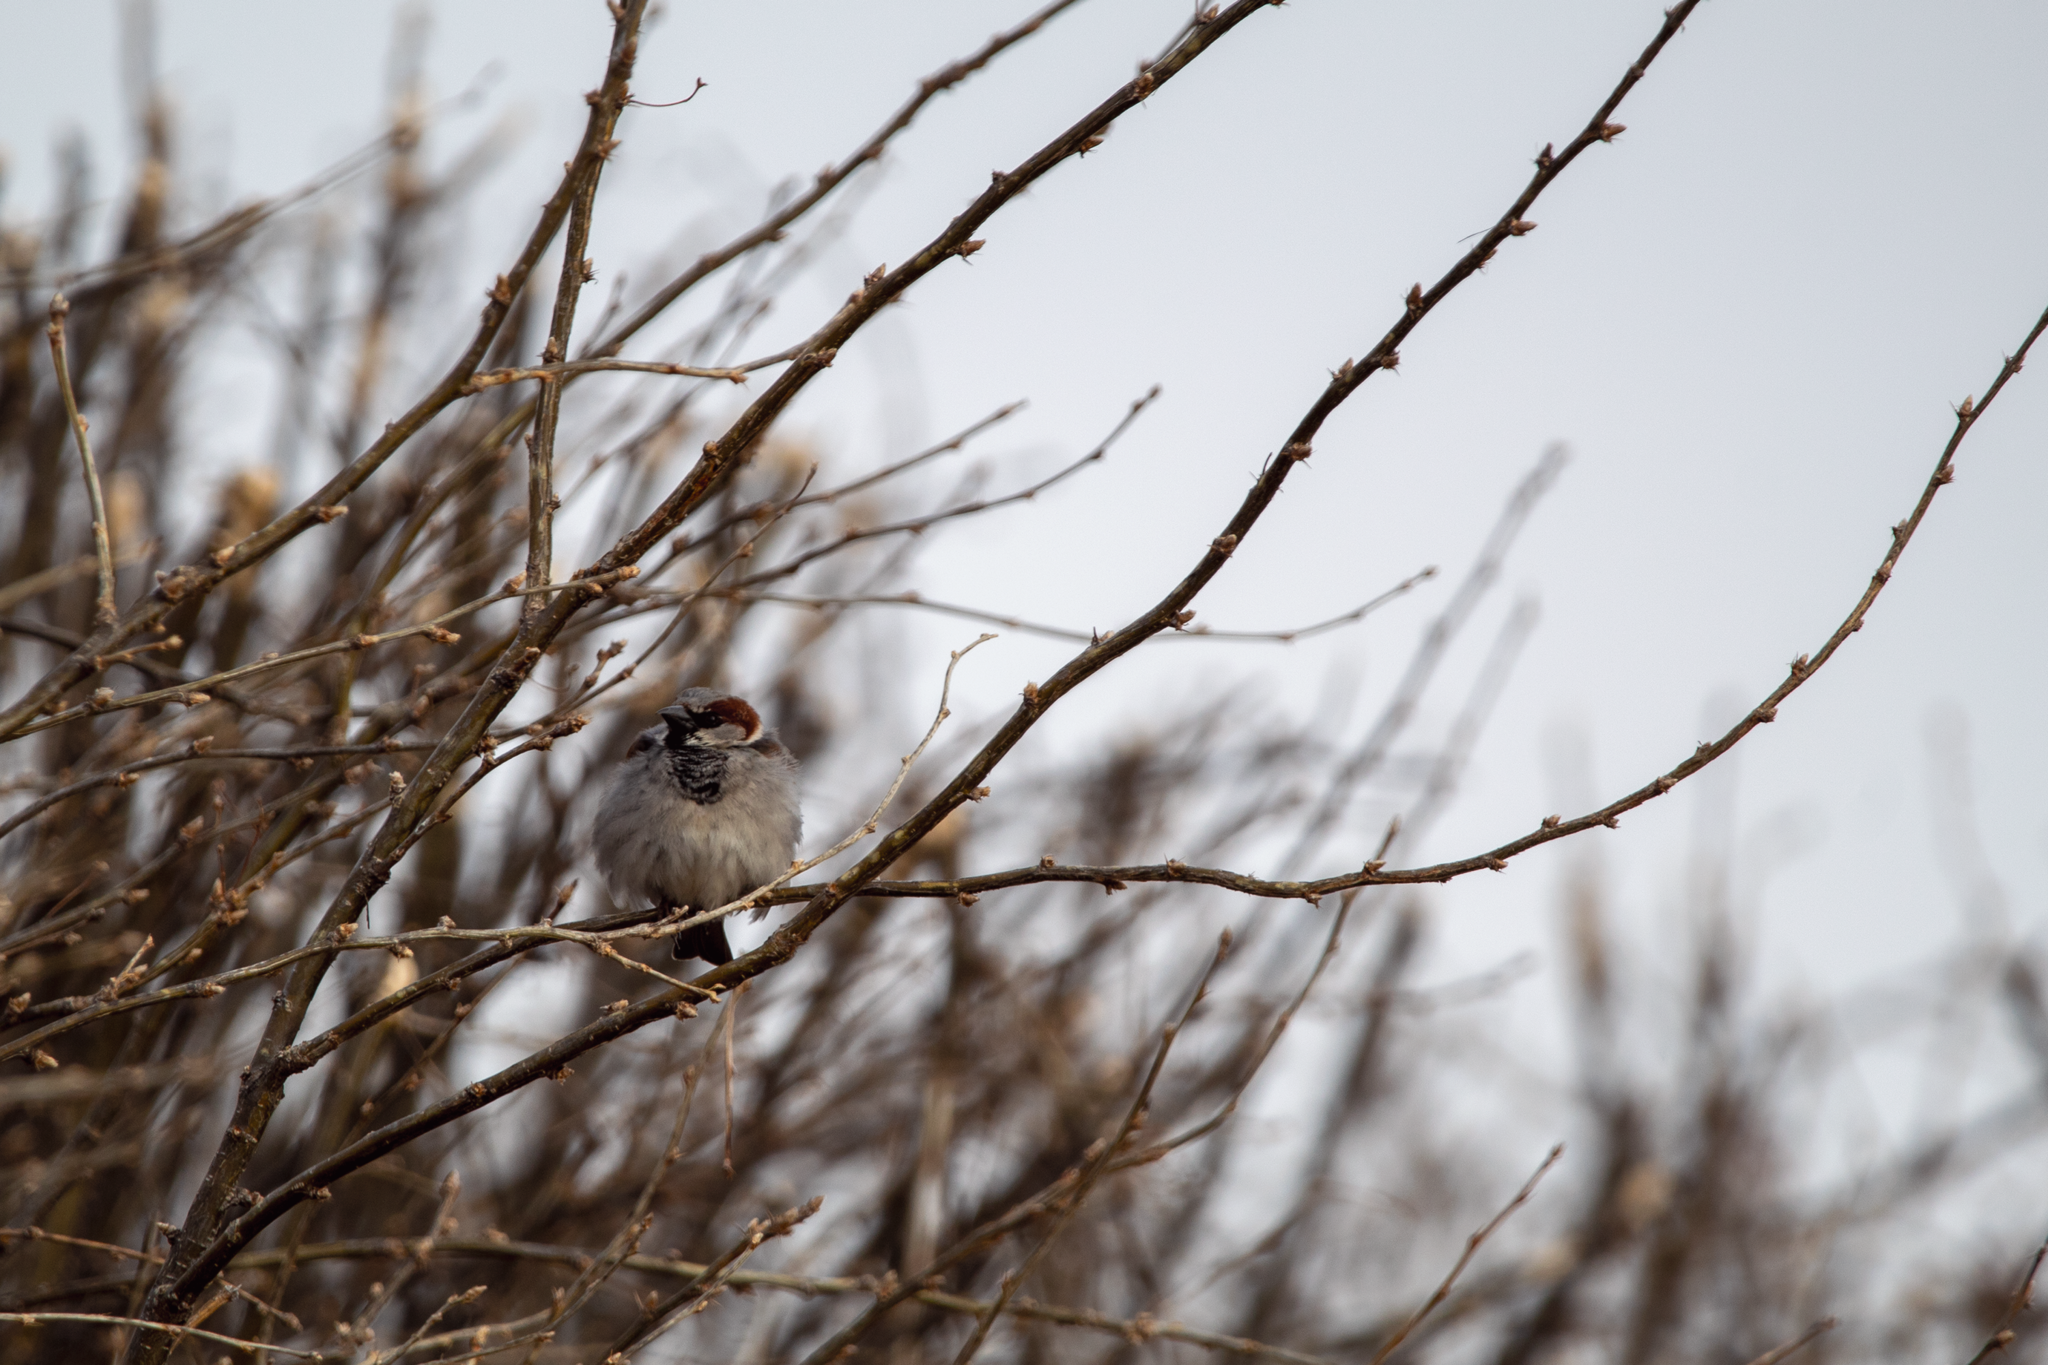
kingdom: Animalia
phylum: Chordata
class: Aves
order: Passeriformes
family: Passeridae
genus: Passer
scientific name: Passer domesticus
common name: House sparrow
